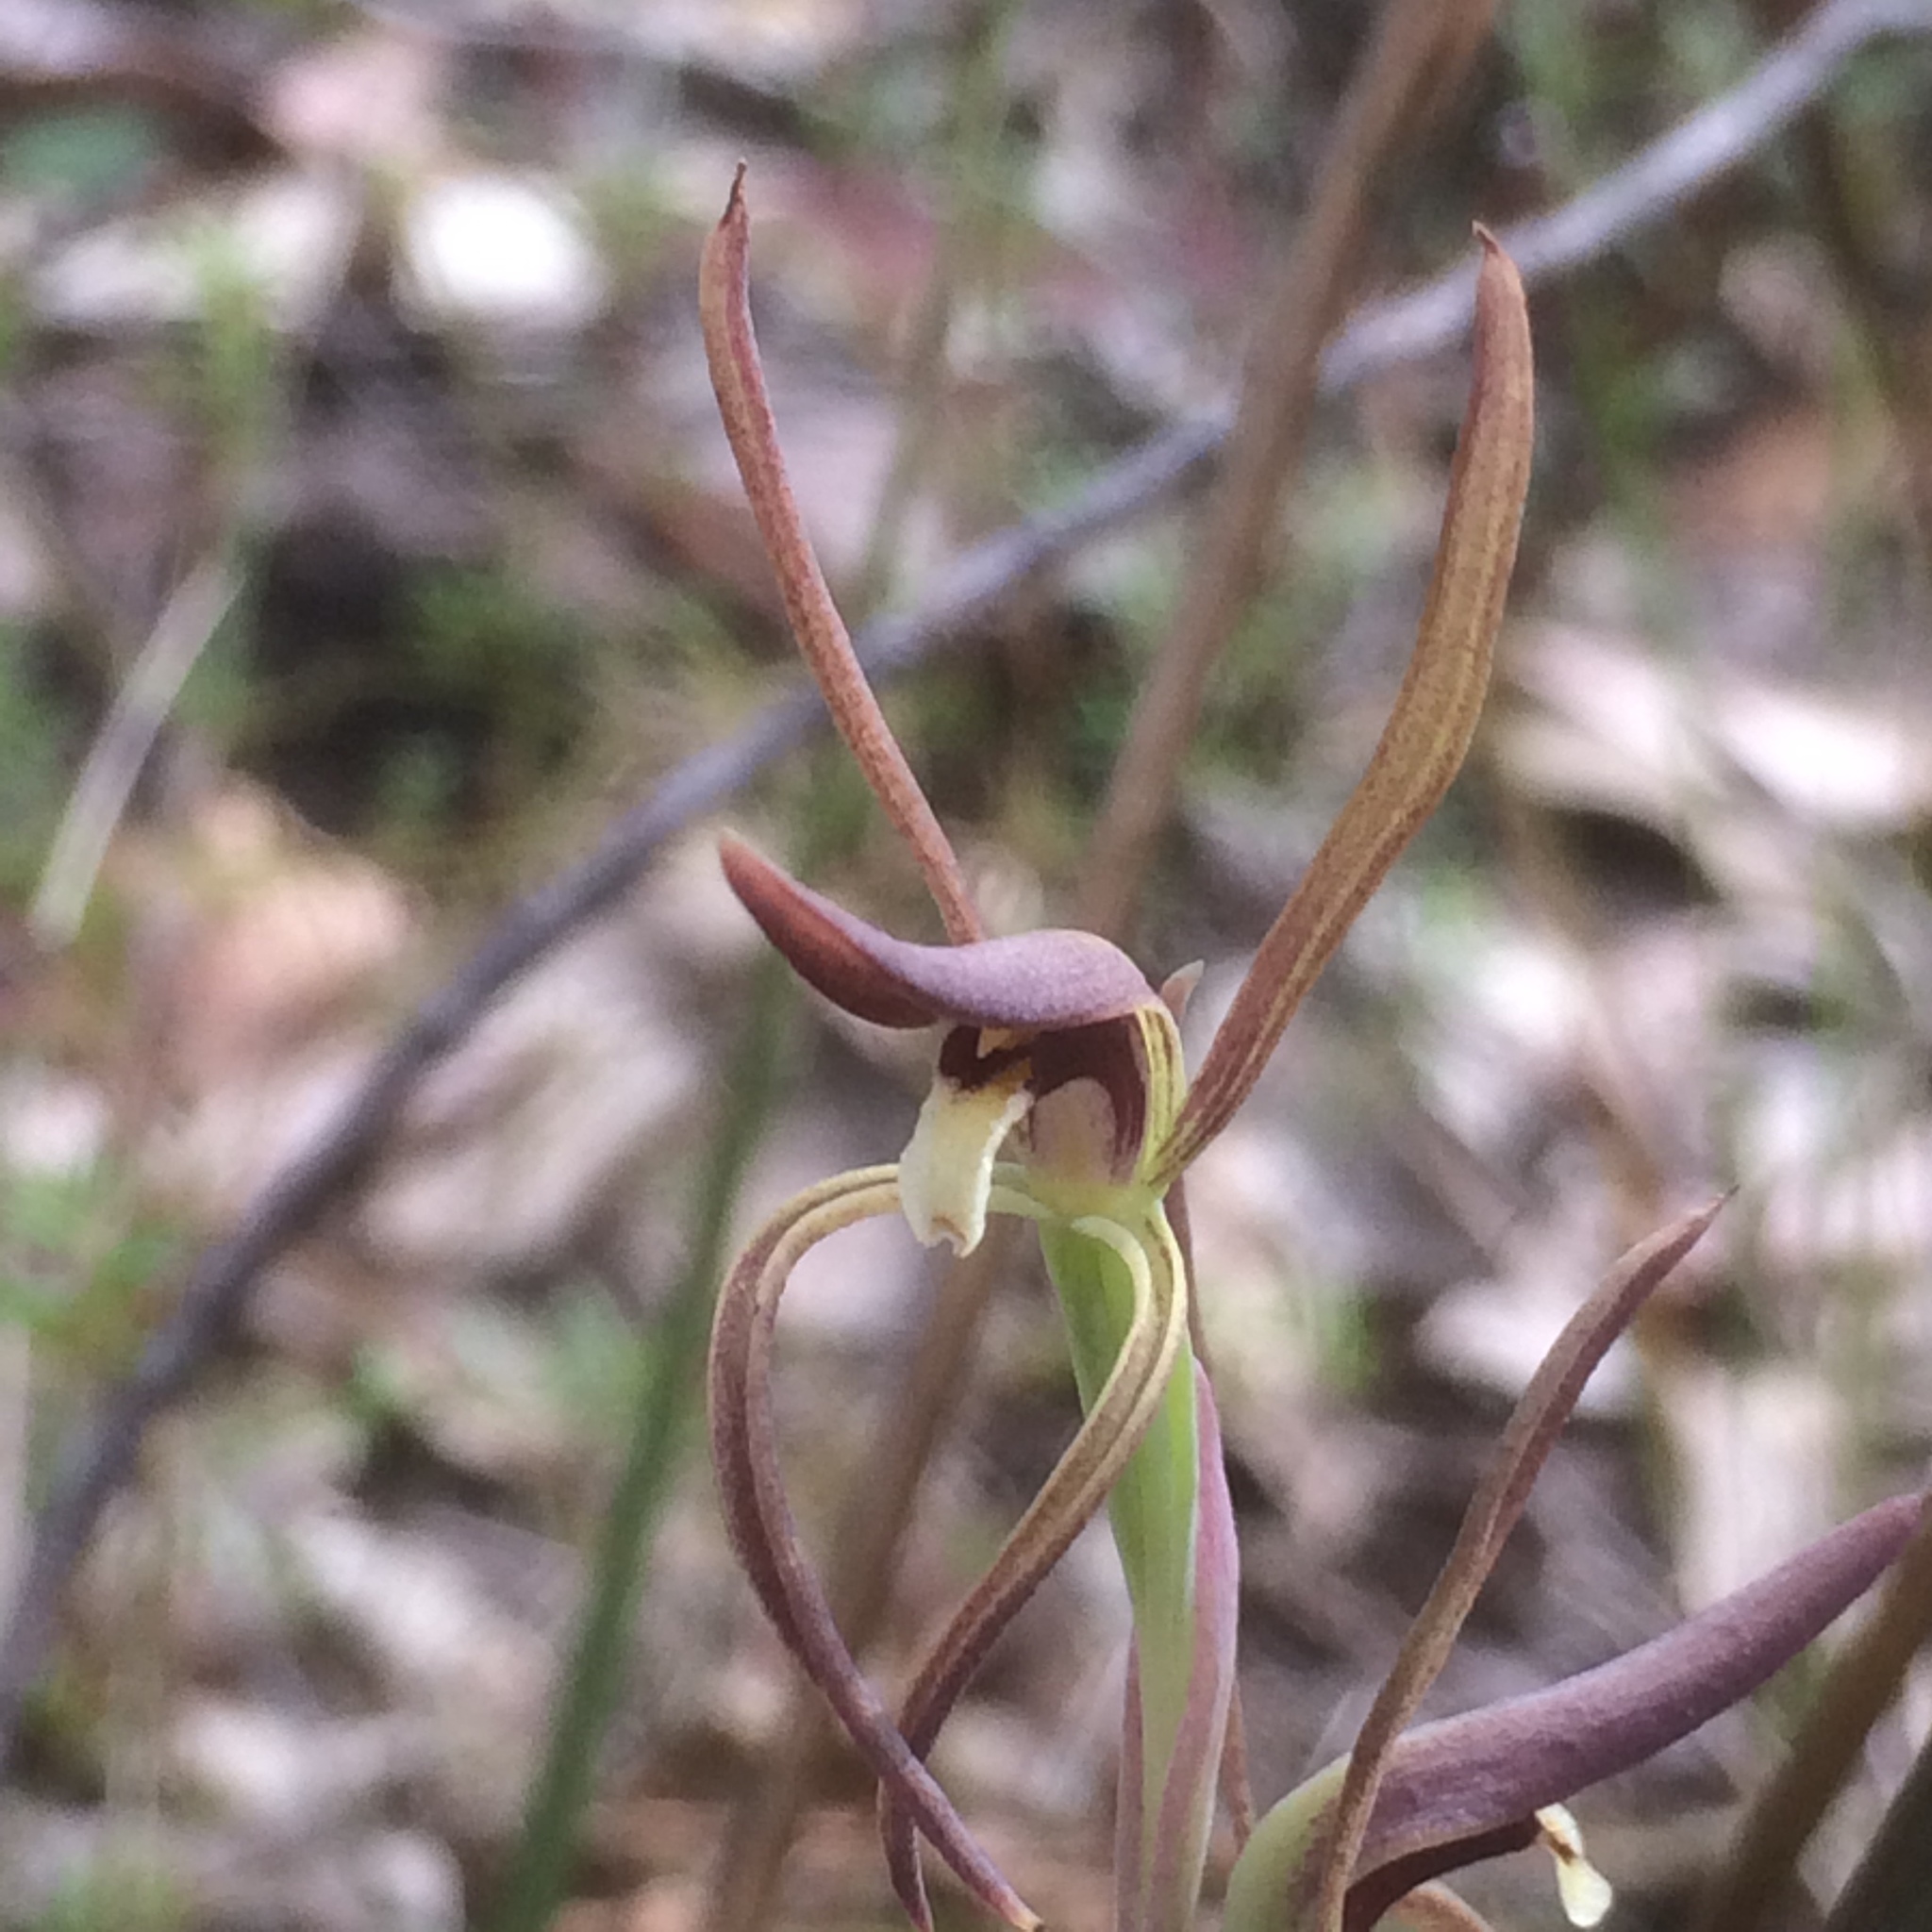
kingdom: Plantae
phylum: Tracheophyta
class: Liliopsida
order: Asparagales
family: Orchidaceae
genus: Lyperanthus
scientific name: Lyperanthus suaveolens
